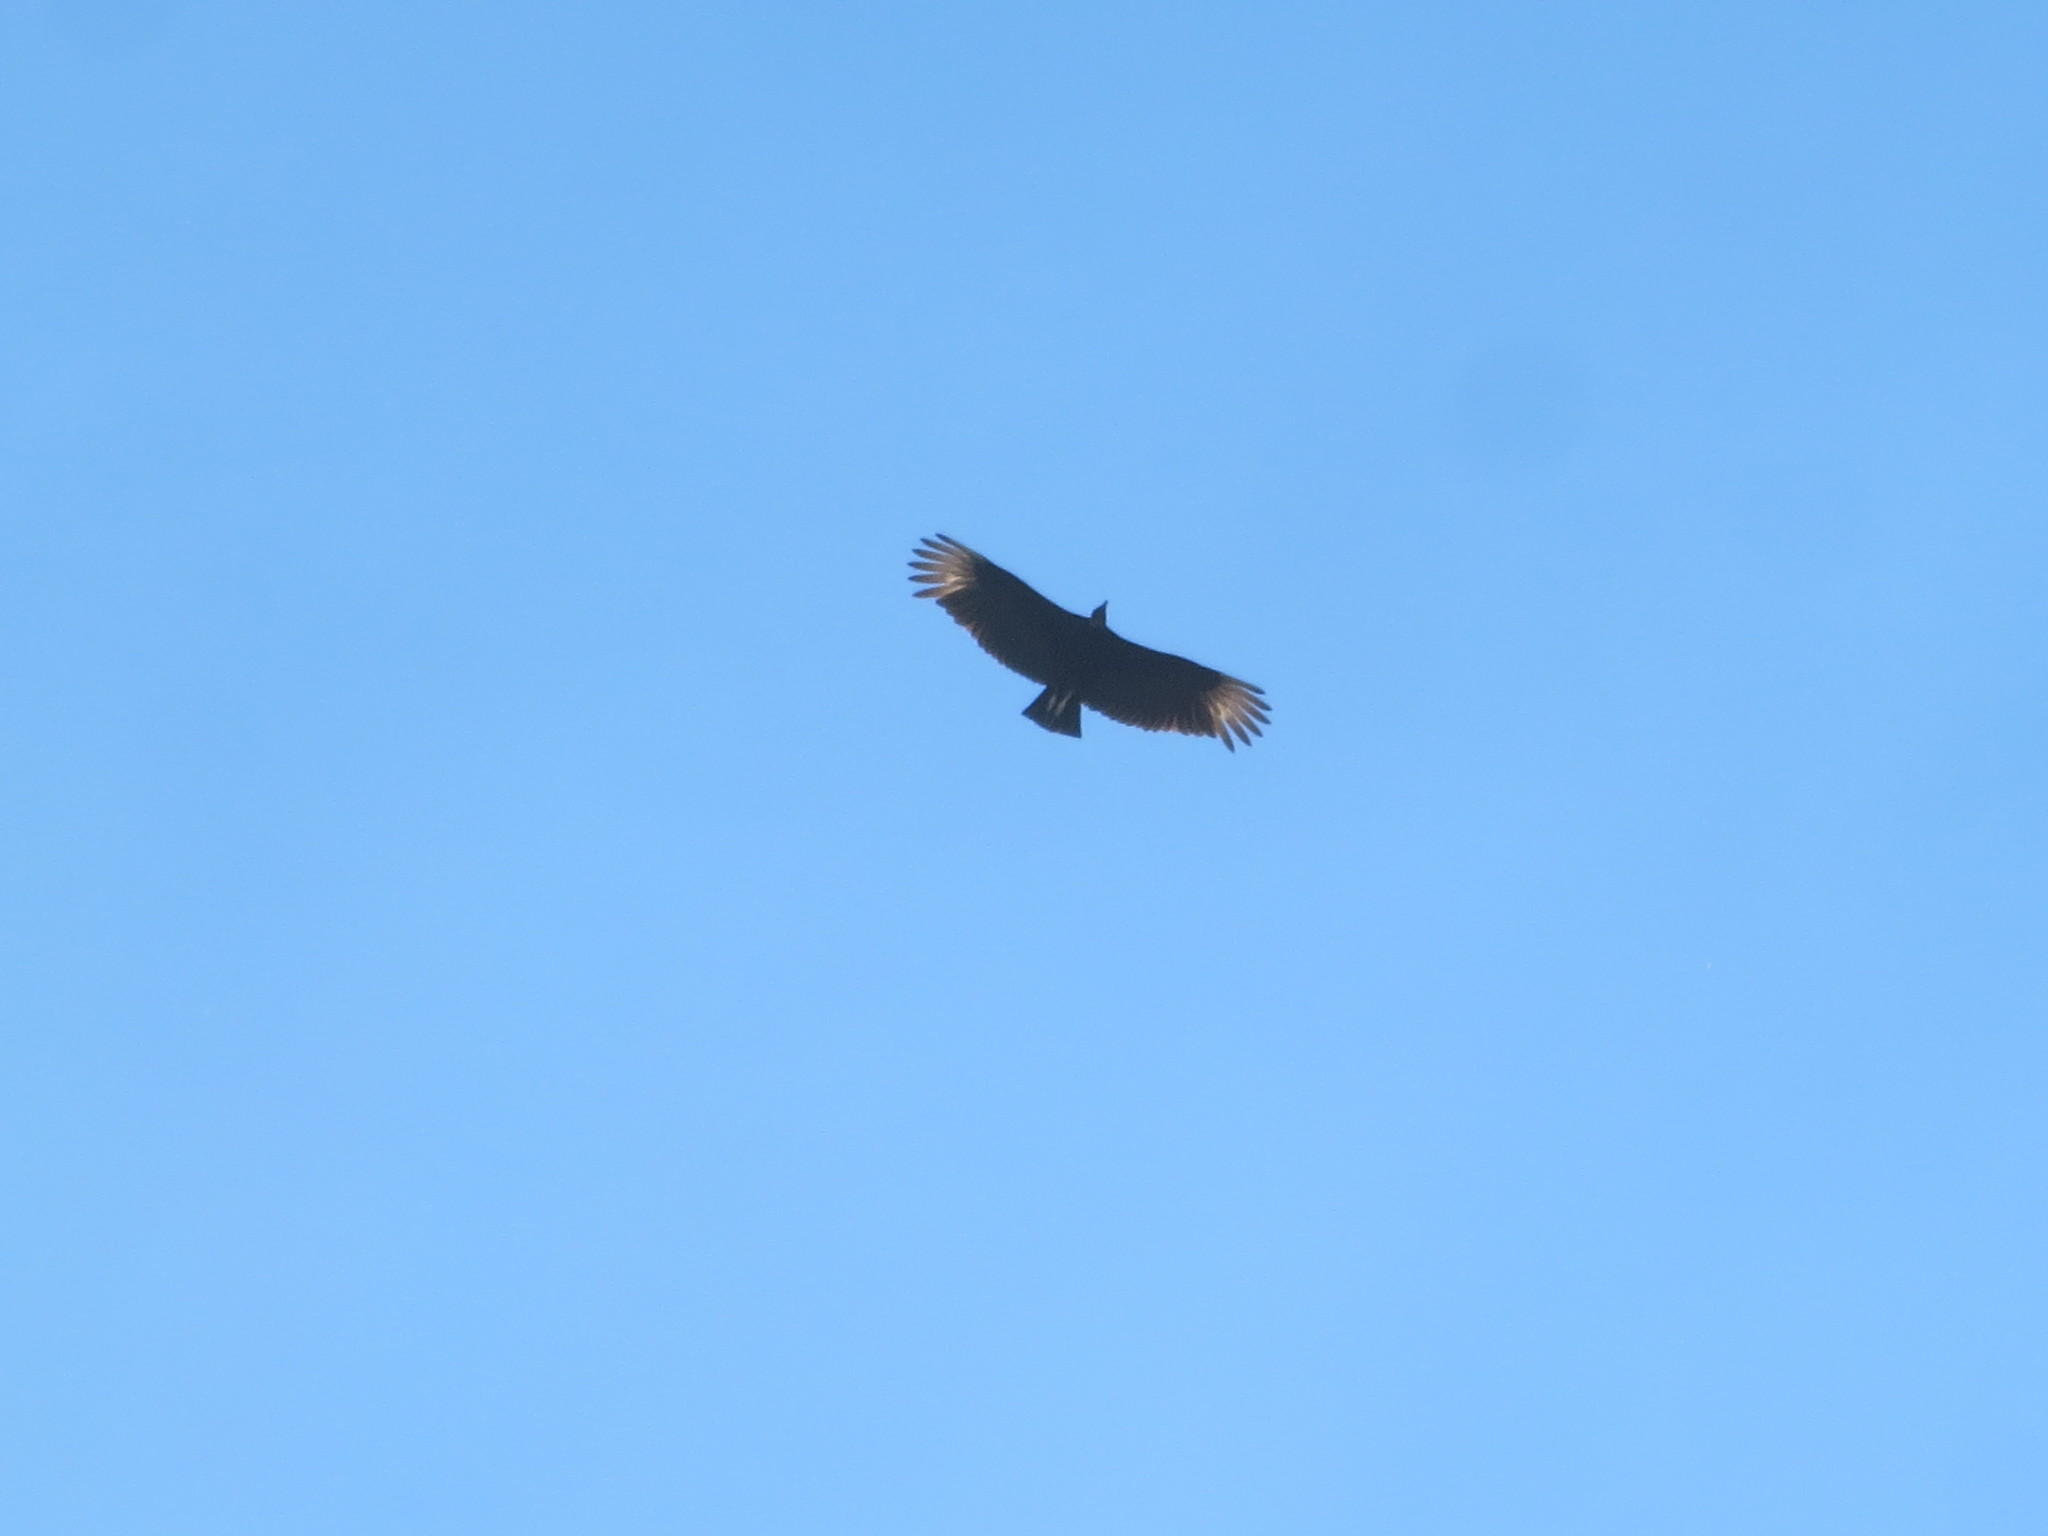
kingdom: Animalia
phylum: Chordata
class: Aves
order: Accipitriformes
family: Cathartidae
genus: Coragyps
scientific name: Coragyps atratus
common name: Black vulture
